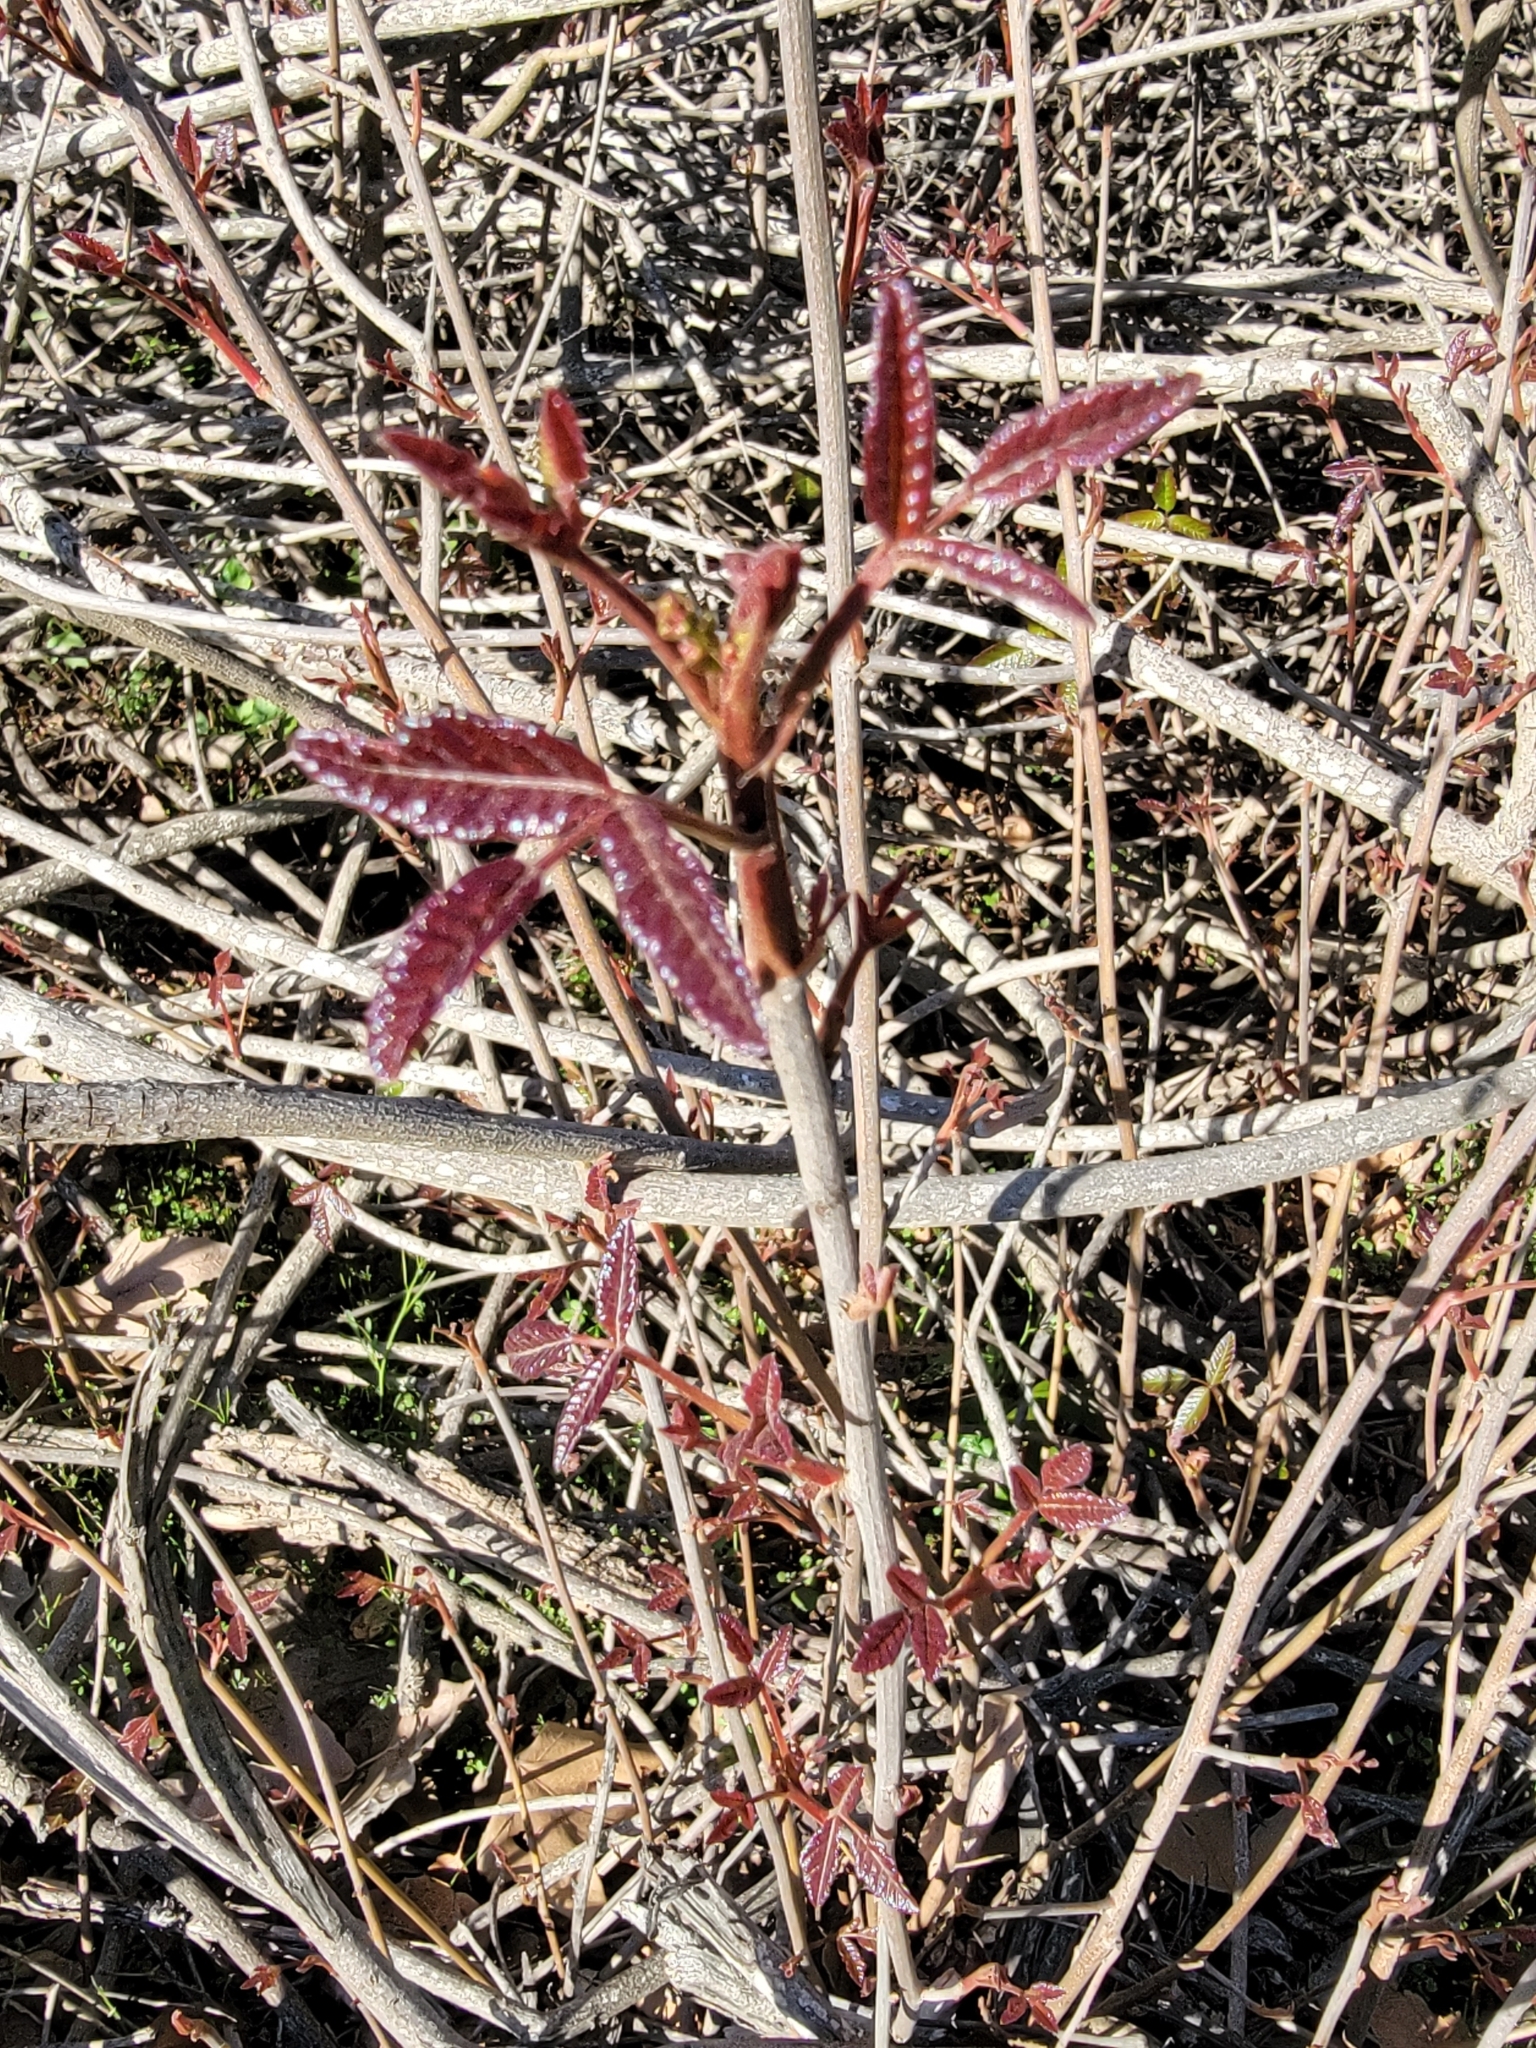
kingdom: Plantae
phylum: Tracheophyta
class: Magnoliopsida
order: Sapindales
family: Anacardiaceae
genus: Toxicodendron
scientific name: Toxicodendron diversilobum
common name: Pacific poison-oak
